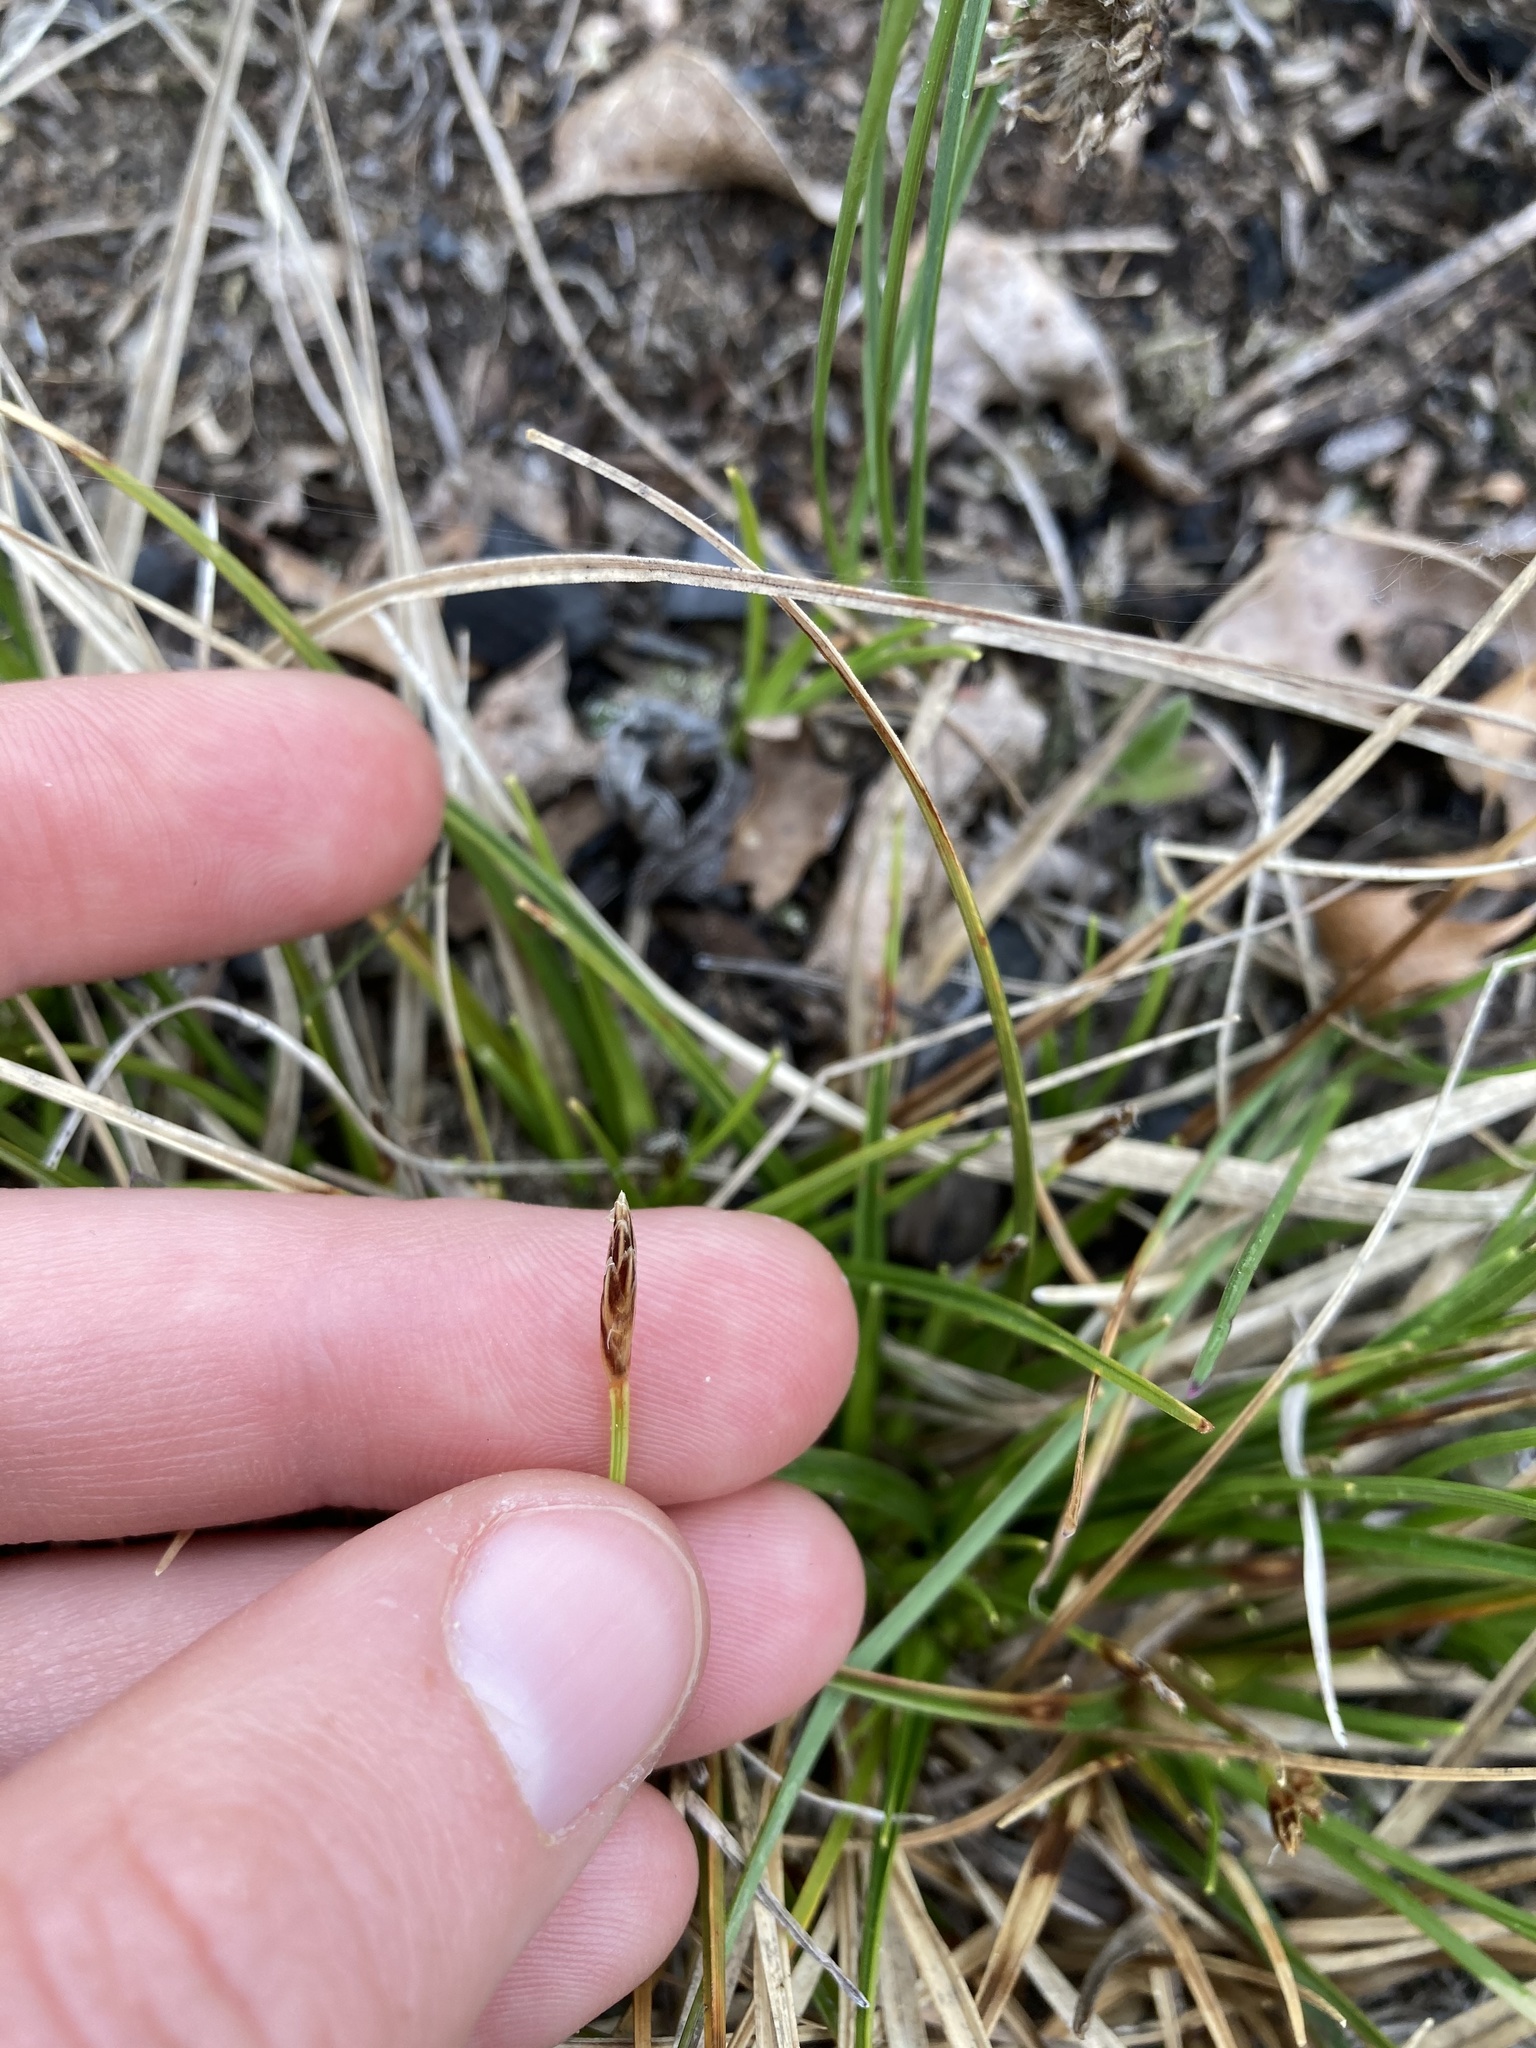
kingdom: Plantae
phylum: Tracheophyta
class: Liliopsida
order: Poales
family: Cyperaceae
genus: Carex
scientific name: Carex umbellata
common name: Early oak sedge
